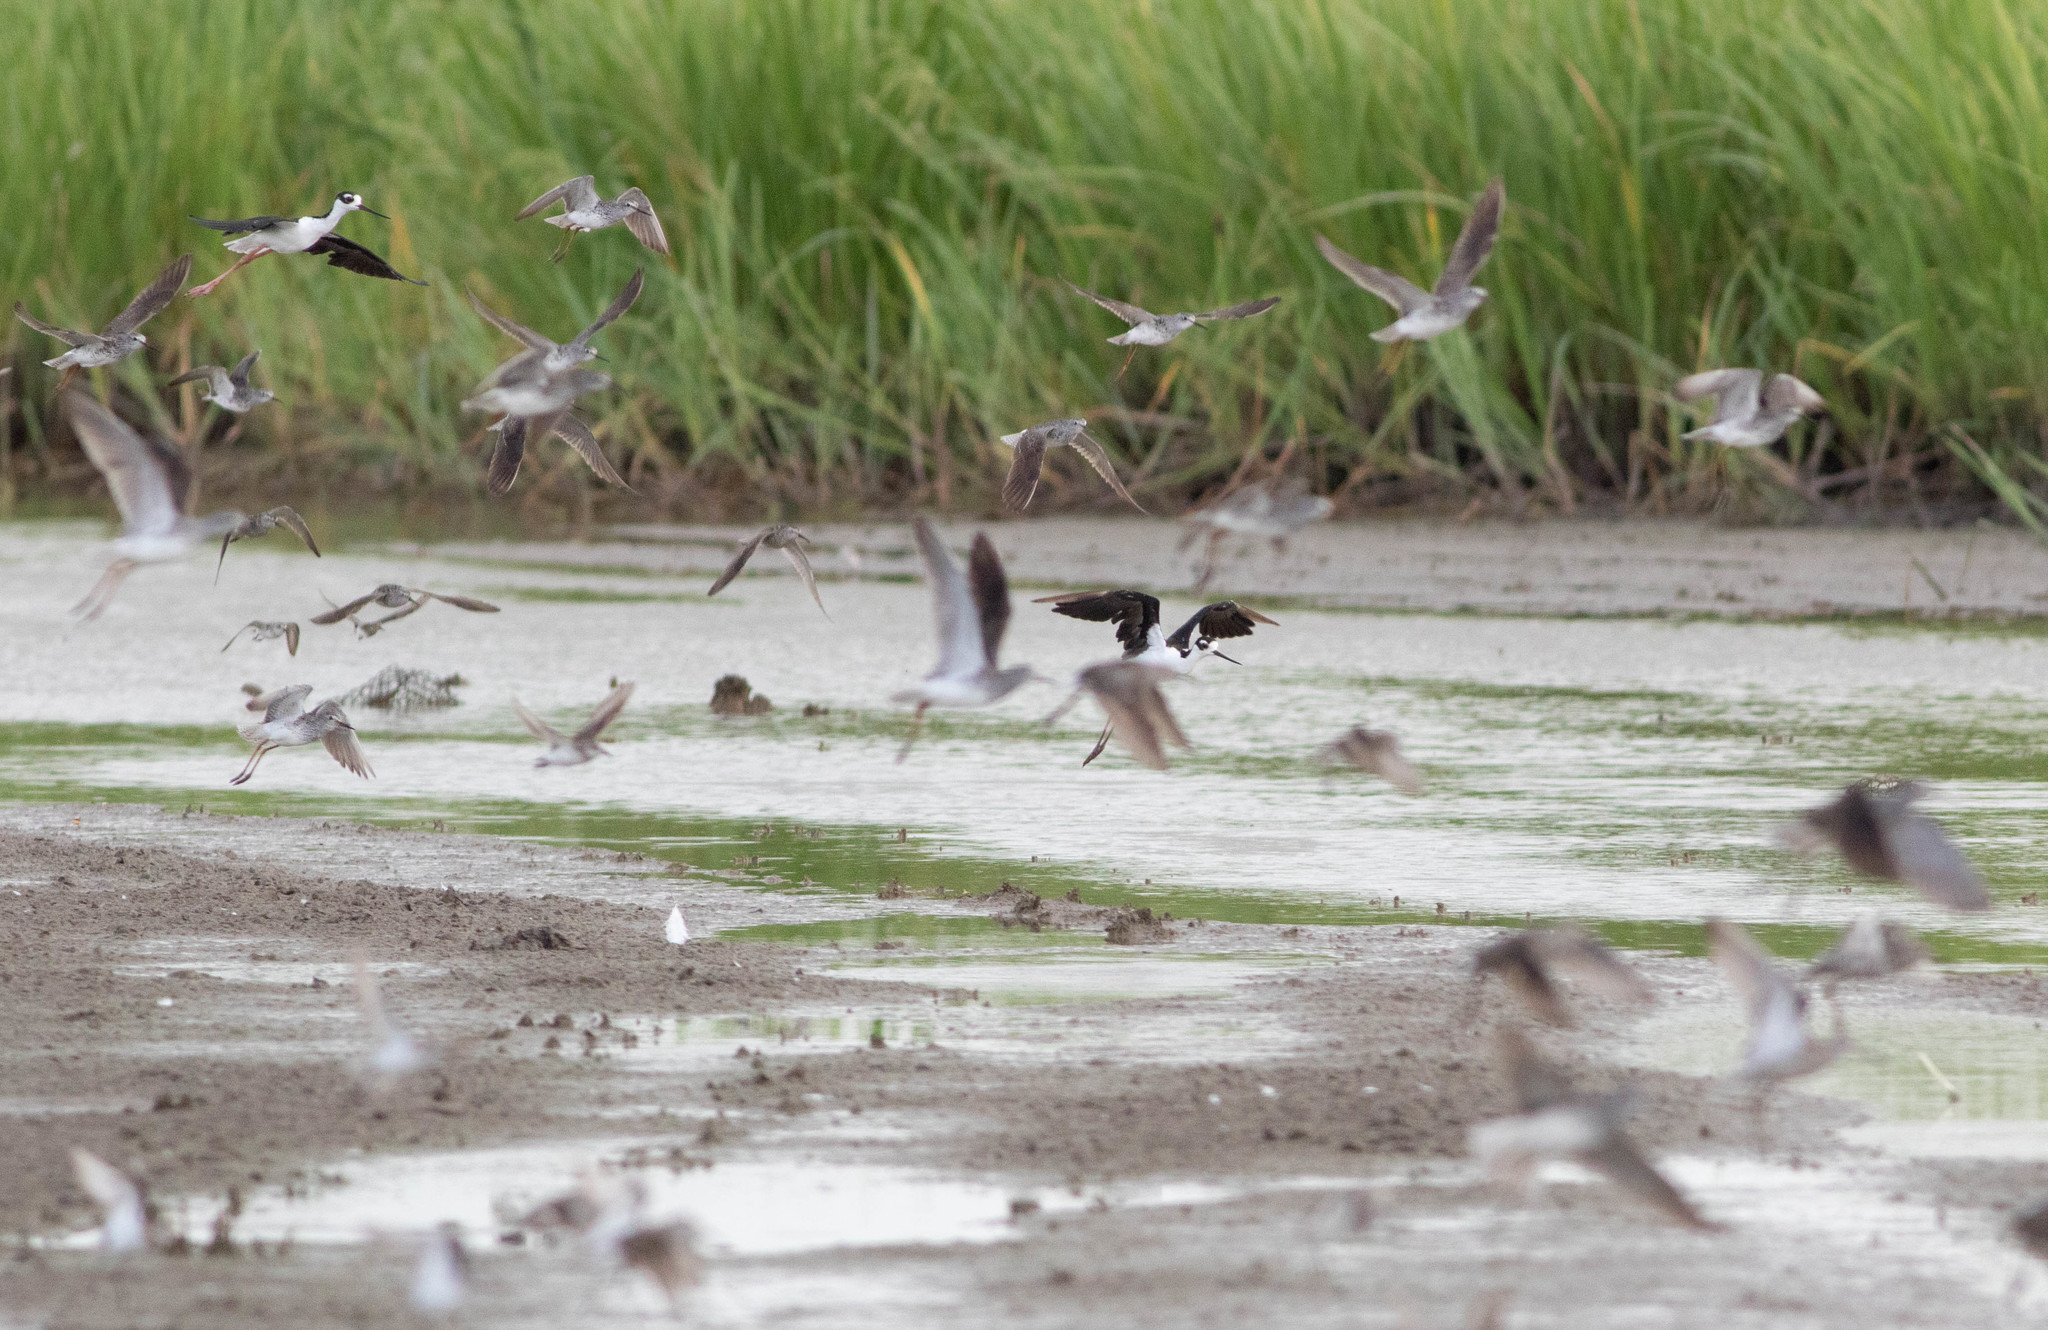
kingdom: Animalia
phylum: Chordata
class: Aves
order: Charadriiformes
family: Recurvirostridae
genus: Himantopus
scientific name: Himantopus mexicanus
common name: Black-necked stilt
